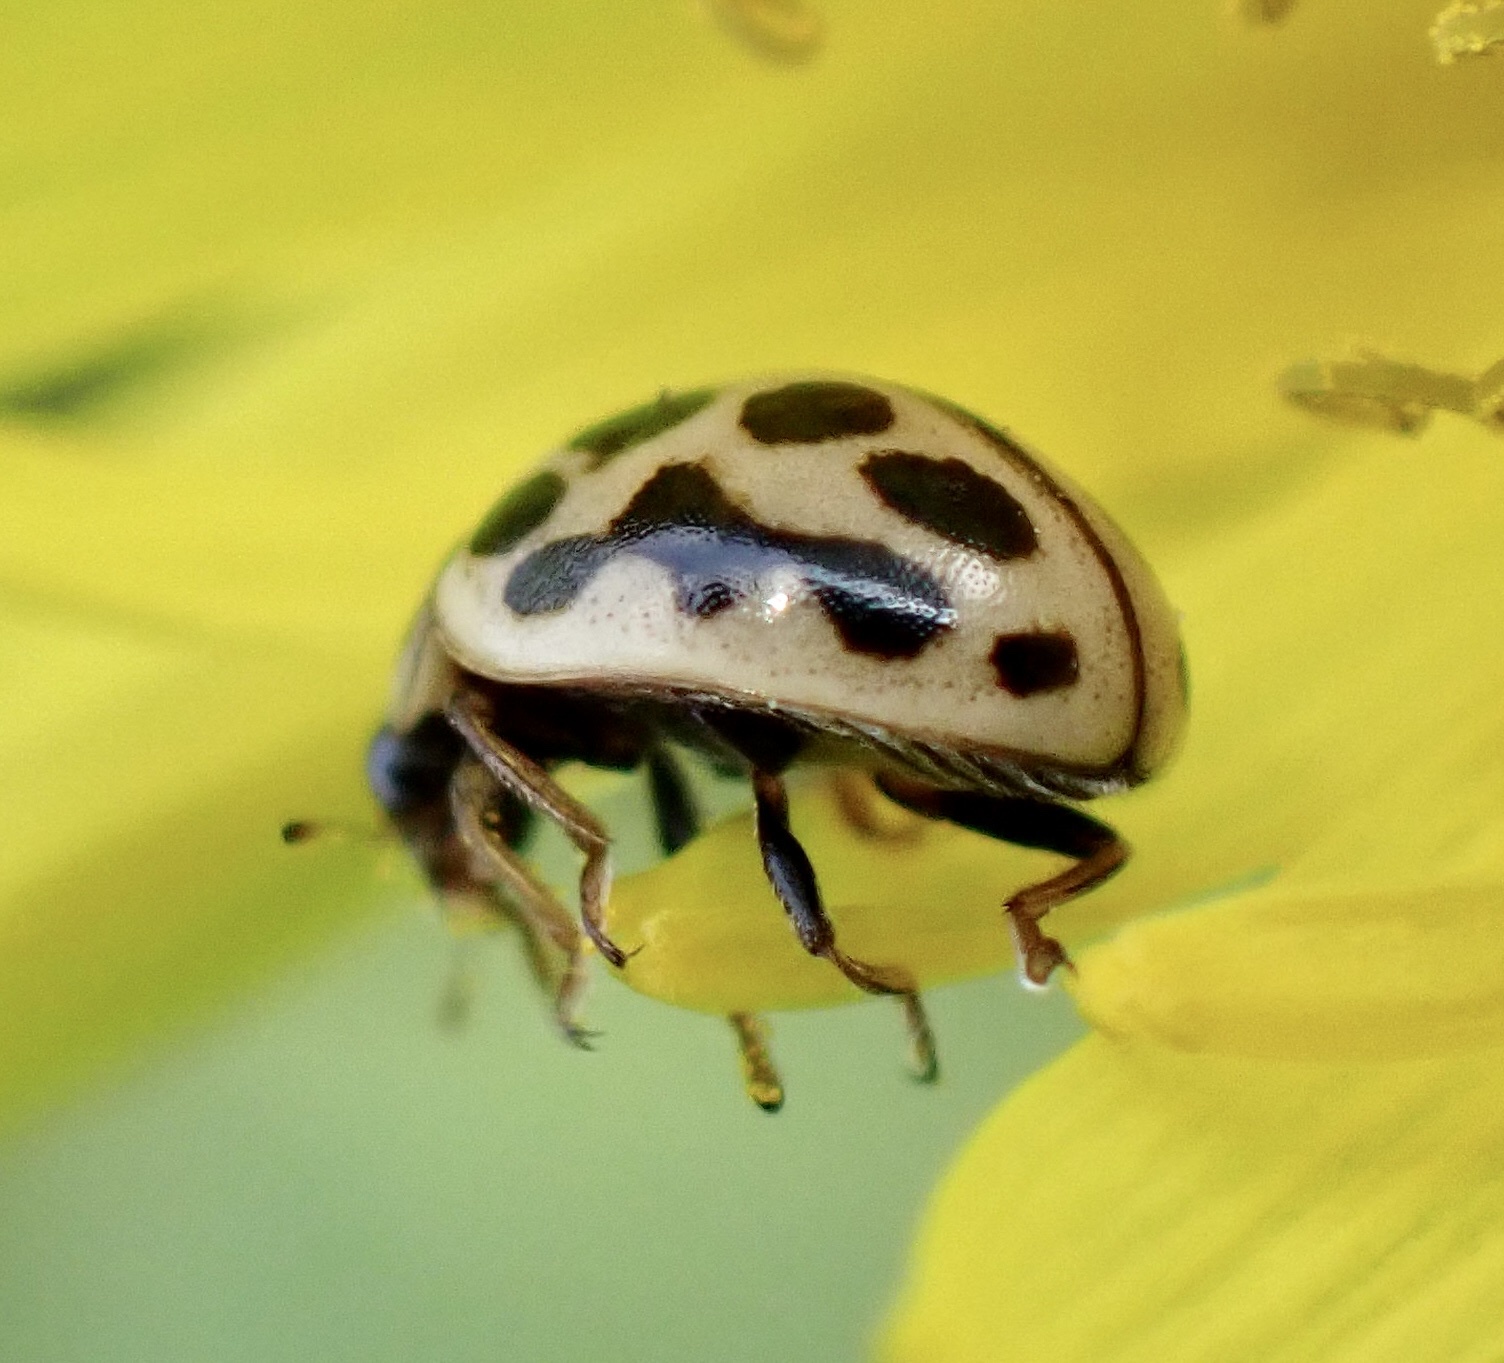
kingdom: Animalia
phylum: Arthropoda
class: Insecta
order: Coleoptera
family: Coccinellidae
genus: Tytthaspis
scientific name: Tytthaspis sedecimpunctata
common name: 16-spot ladybird
